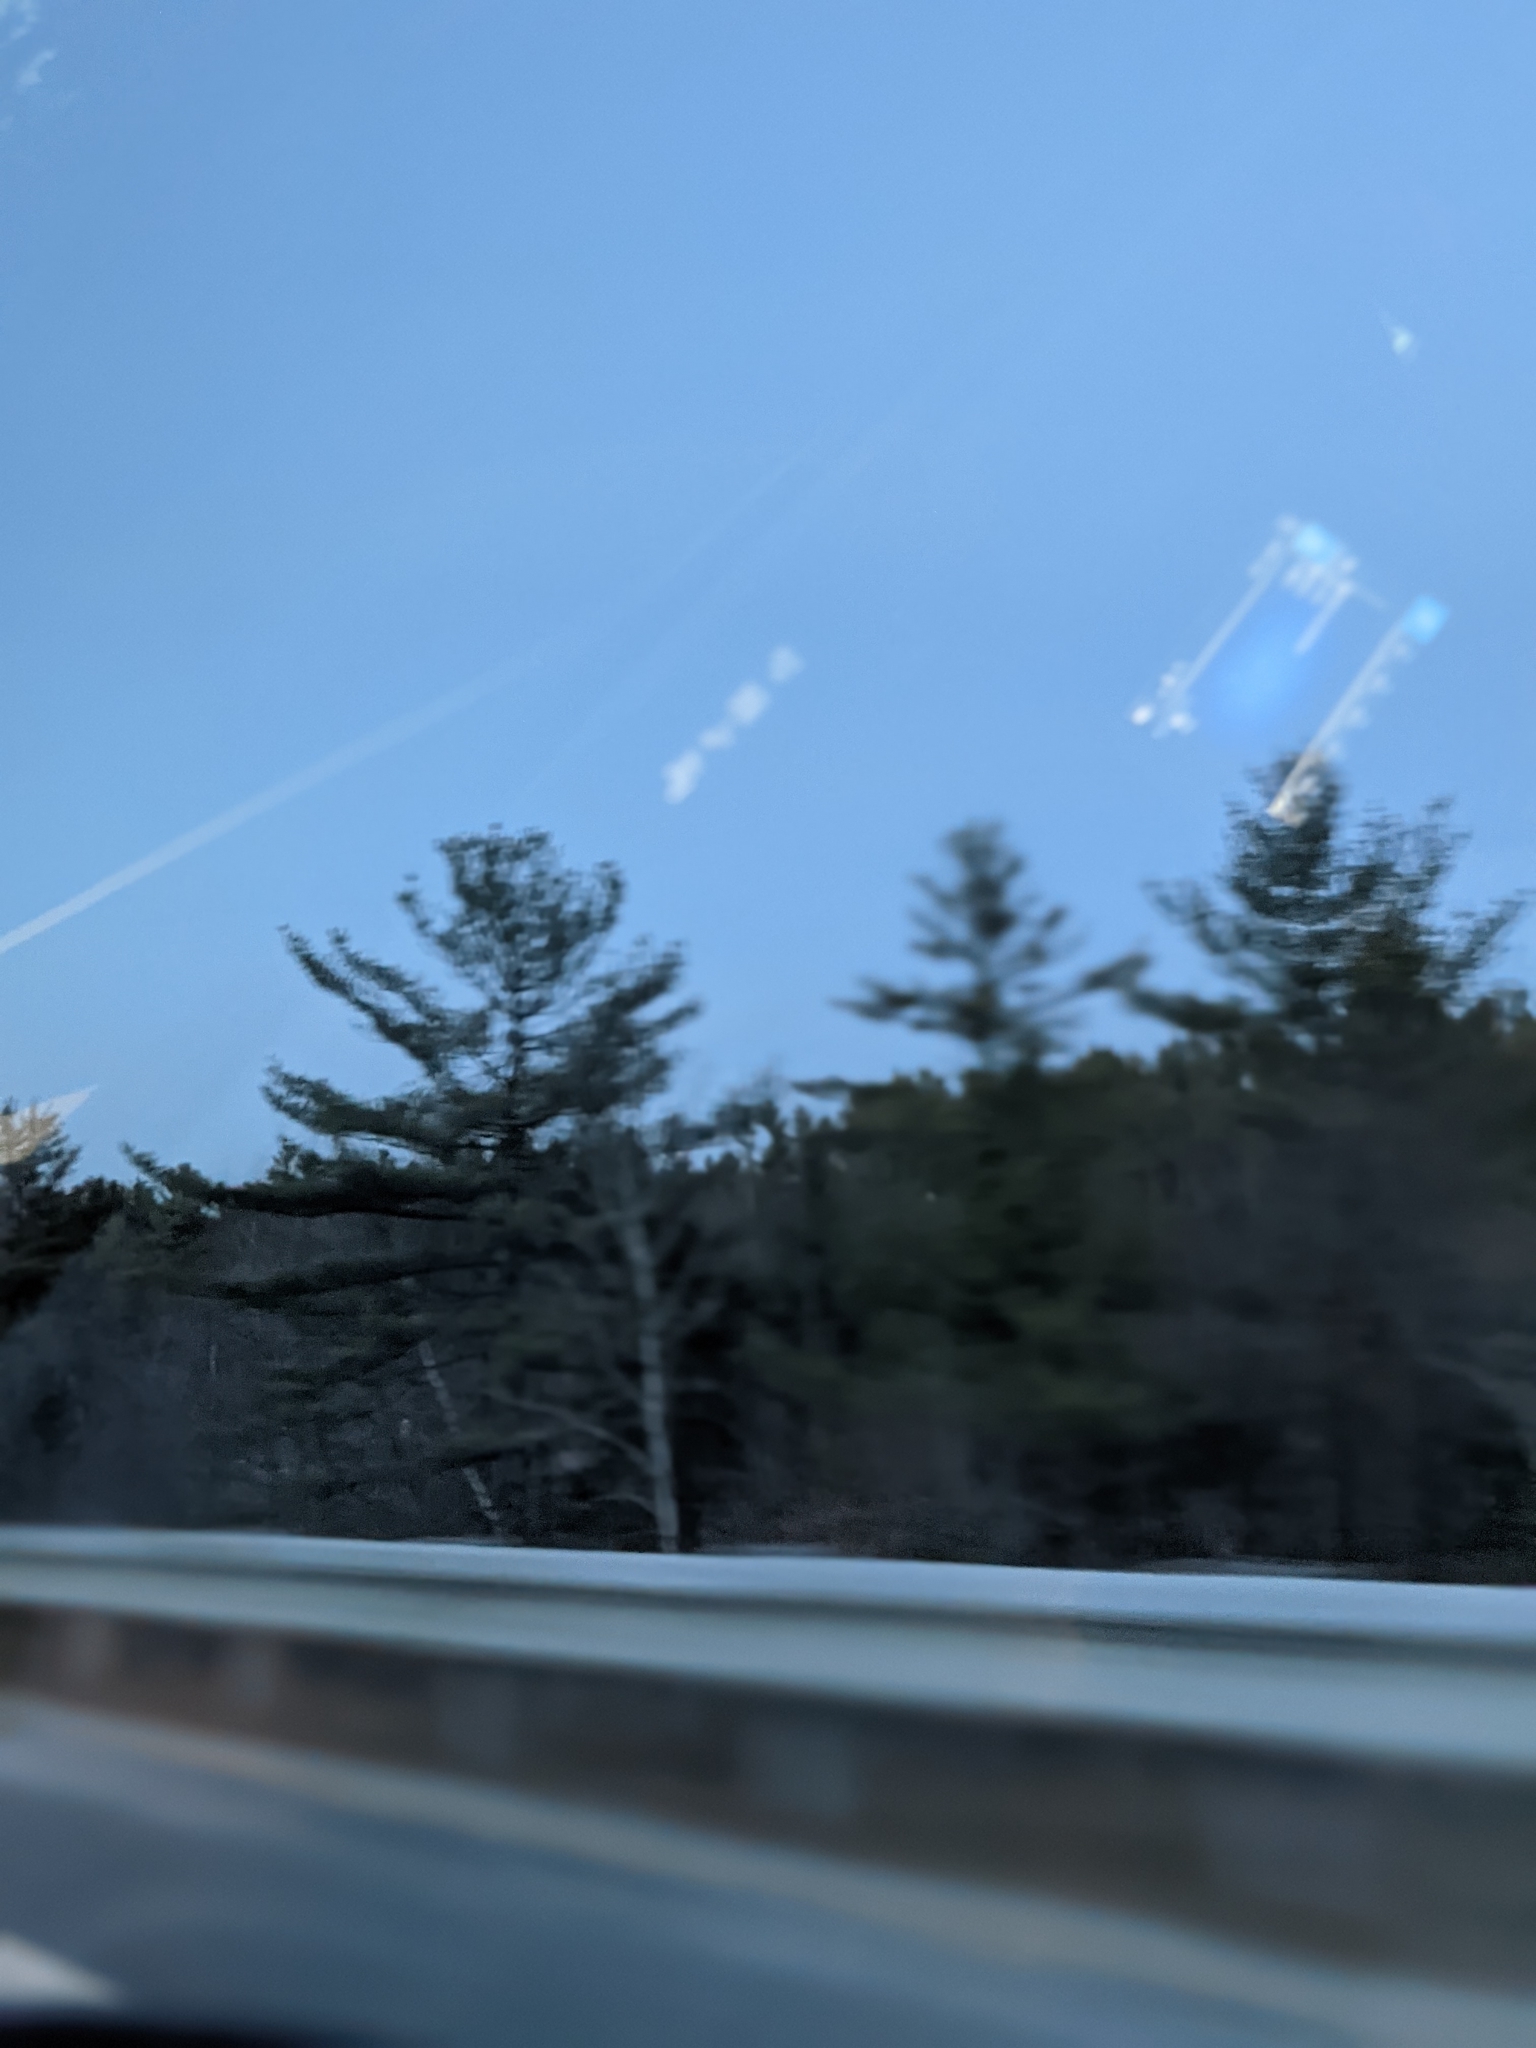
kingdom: Plantae
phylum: Tracheophyta
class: Pinopsida
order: Pinales
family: Pinaceae
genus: Pinus
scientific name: Pinus strobus
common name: Weymouth pine
